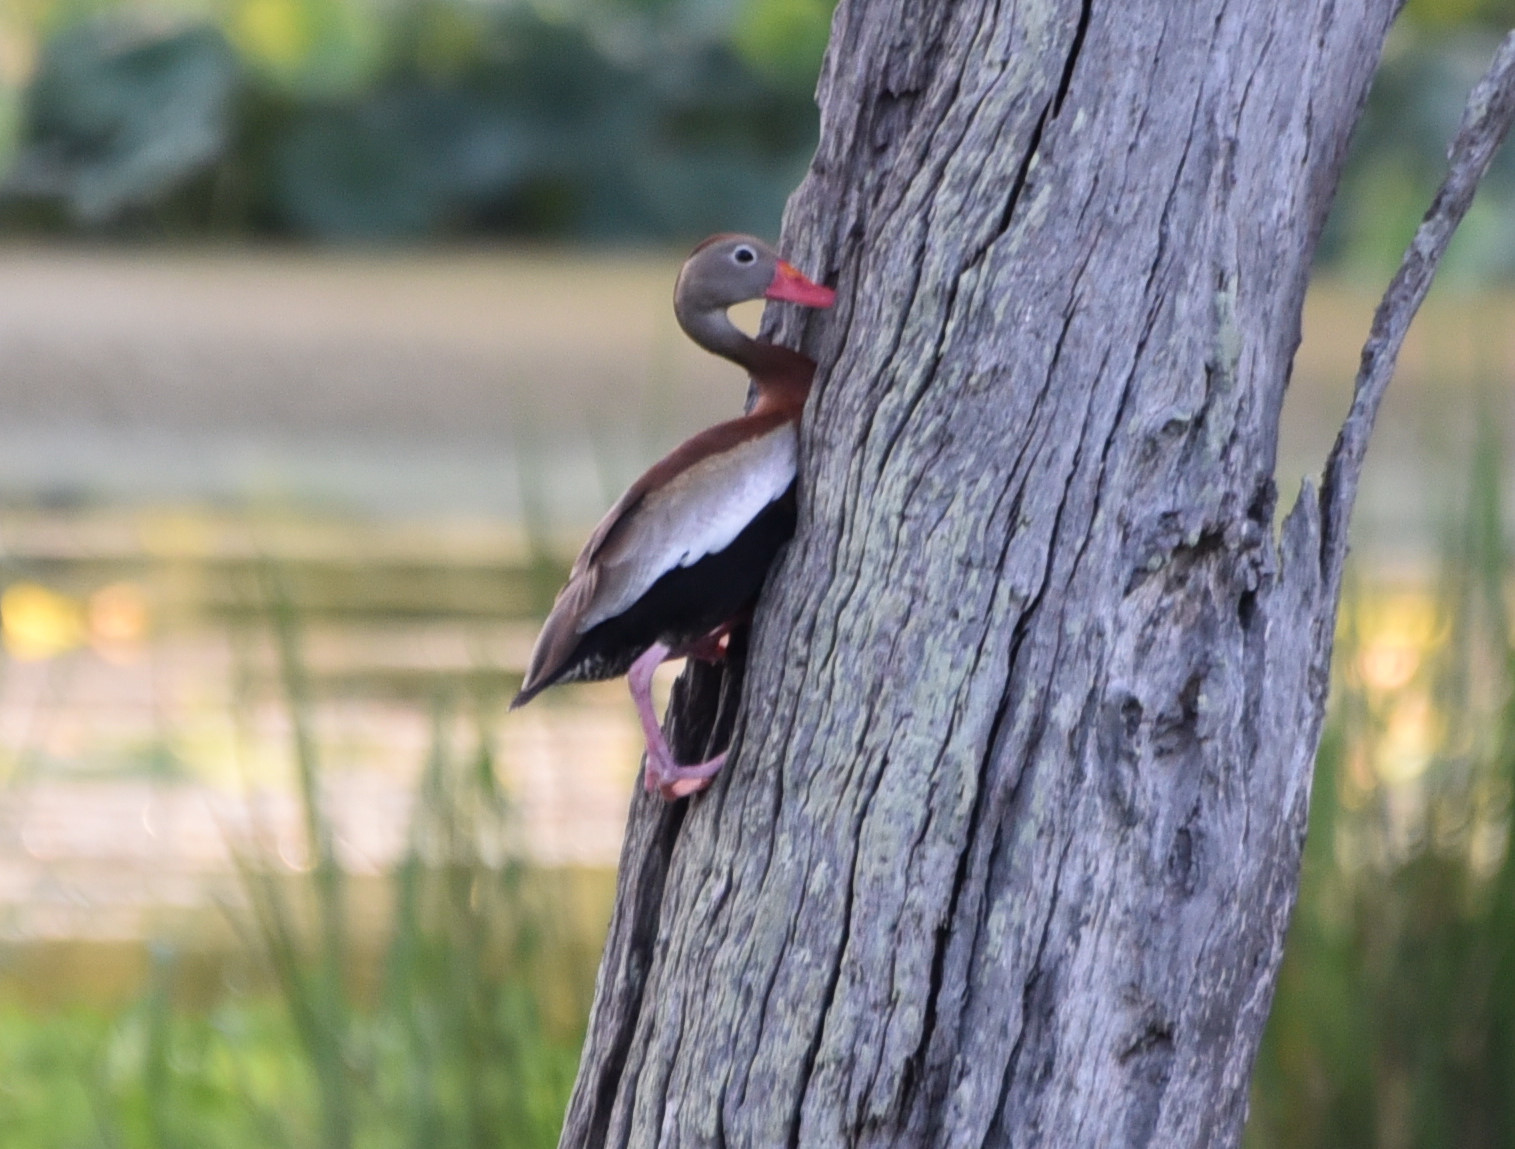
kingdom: Animalia
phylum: Chordata
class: Aves
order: Anseriformes
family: Anatidae
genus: Dendrocygna
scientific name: Dendrocygna autumnalis
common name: Black-bellied whistling duck
